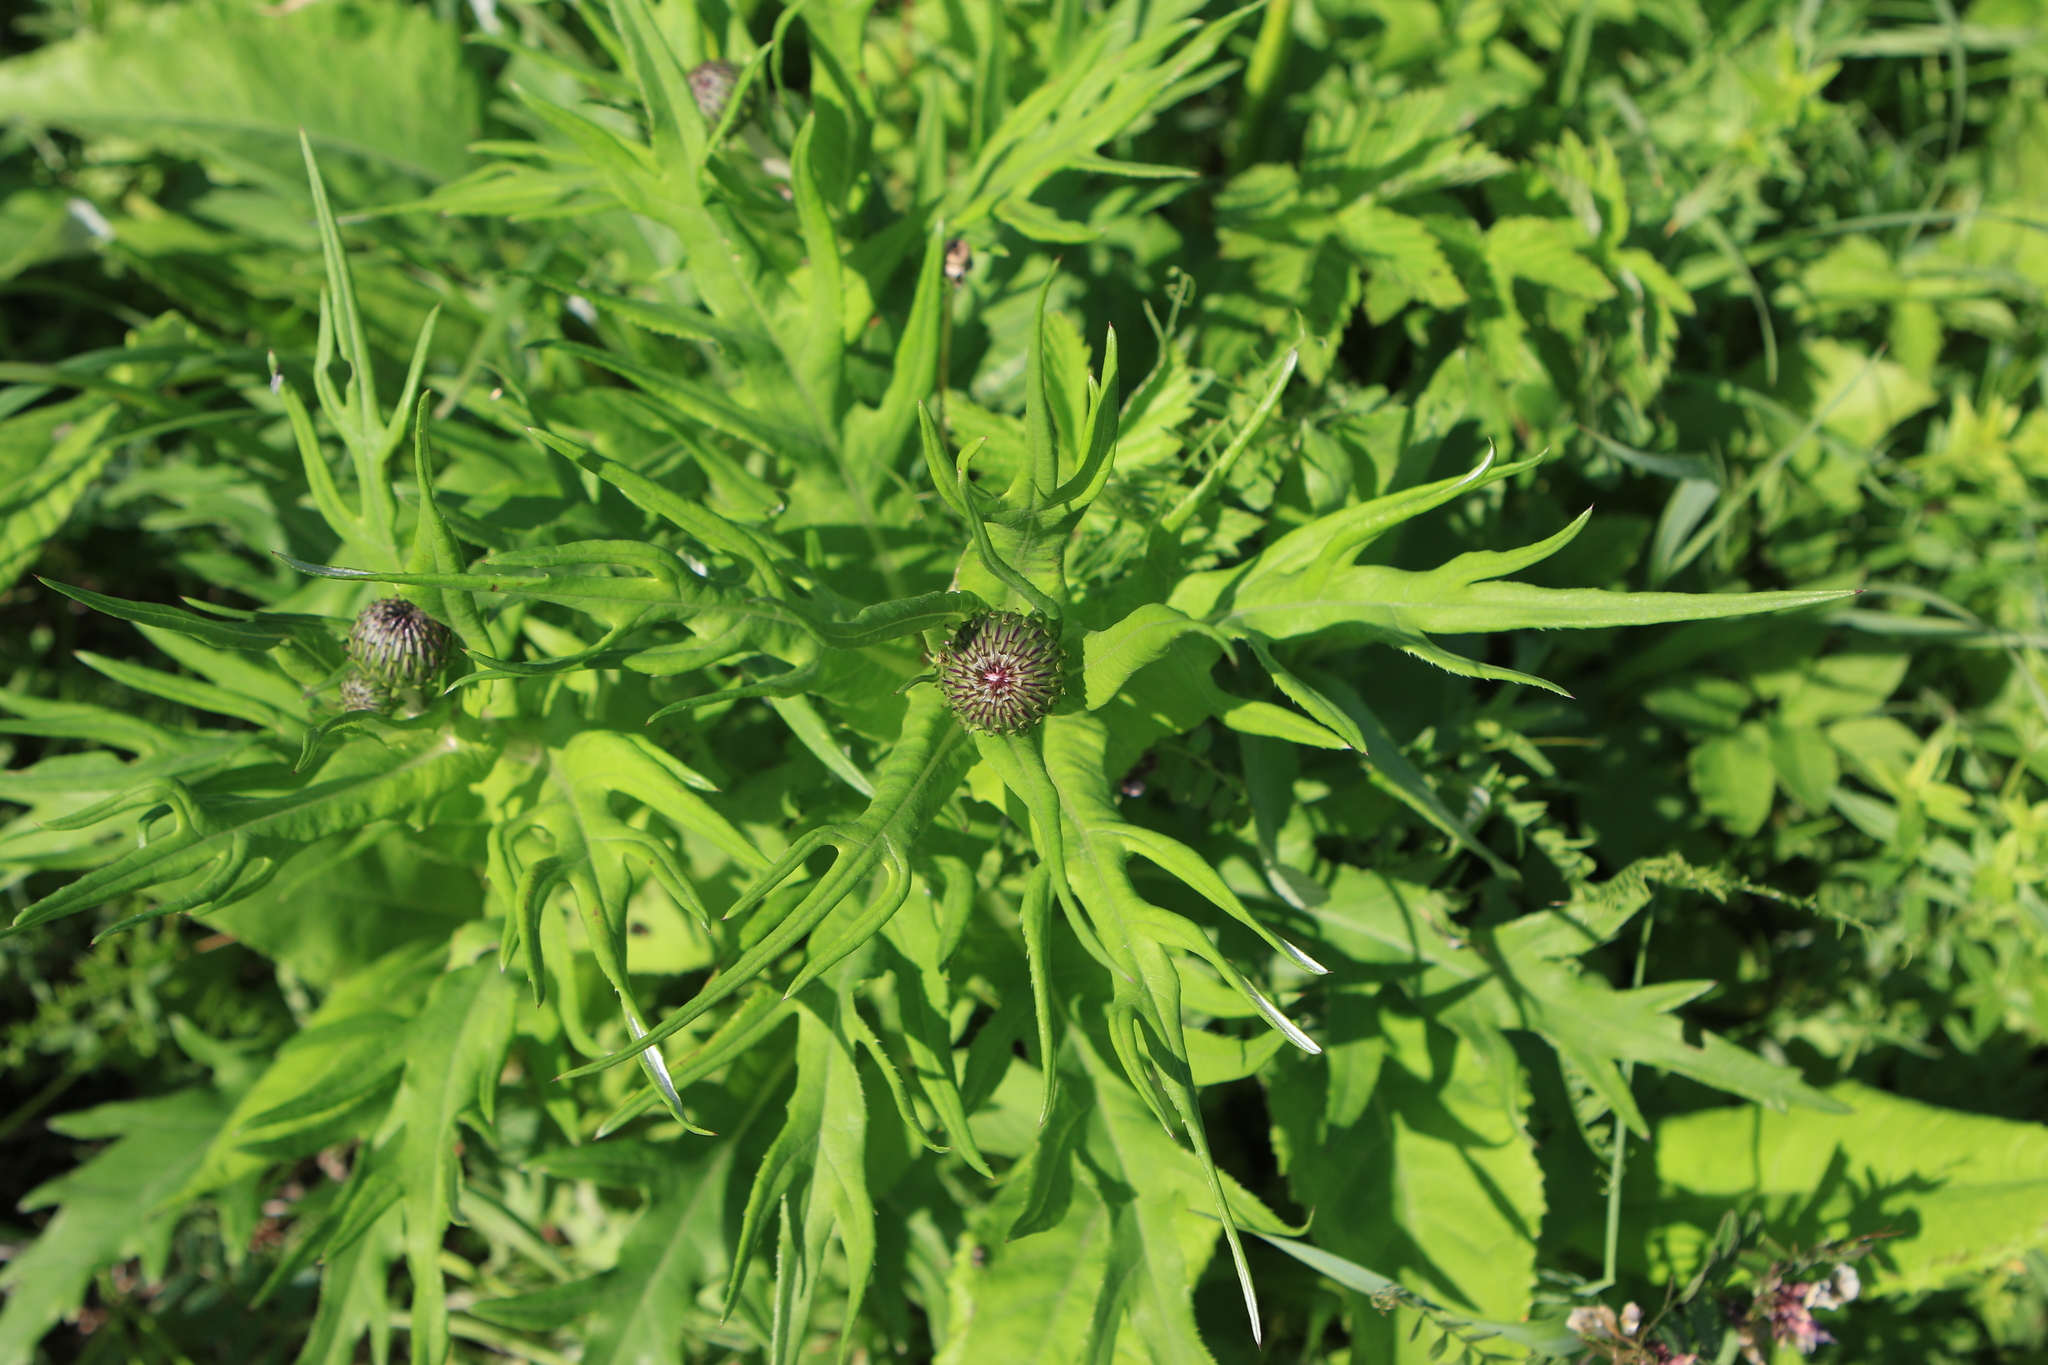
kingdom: Plantae
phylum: Tracheophyta
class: Magnoliopsida
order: Asterales
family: Asteraceae
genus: Cirsium
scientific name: Cirsium heterophyllum
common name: Melancholy thistle
